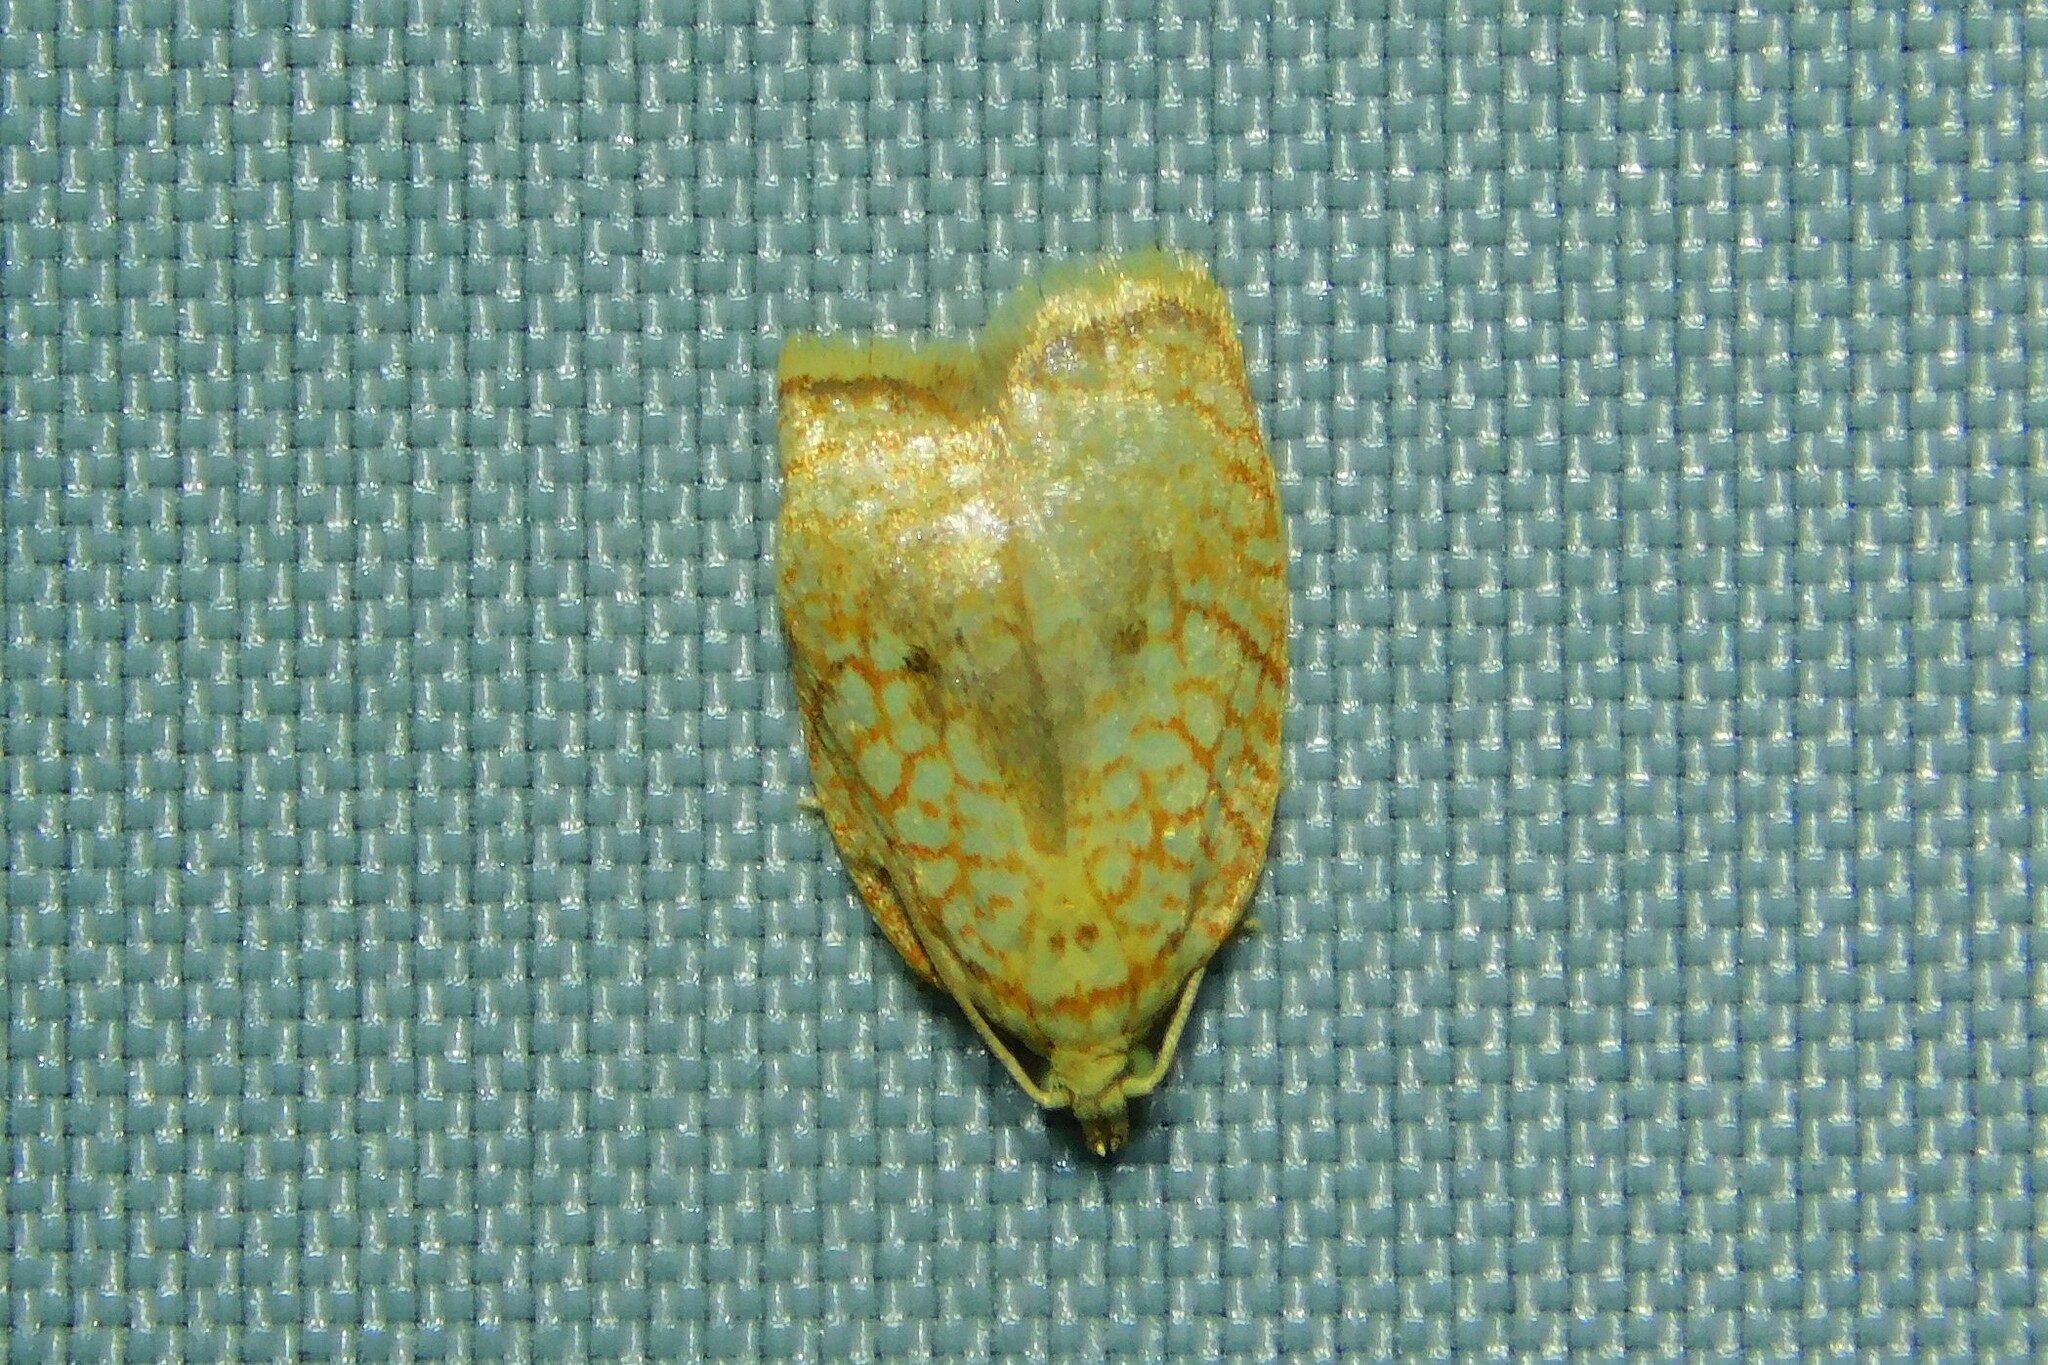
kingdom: Animalia
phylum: Arthropoda
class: Insecta
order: Lepidoptera
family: Tortricidae
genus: Acleris
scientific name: Acleris forsskaleana
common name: Maple button
